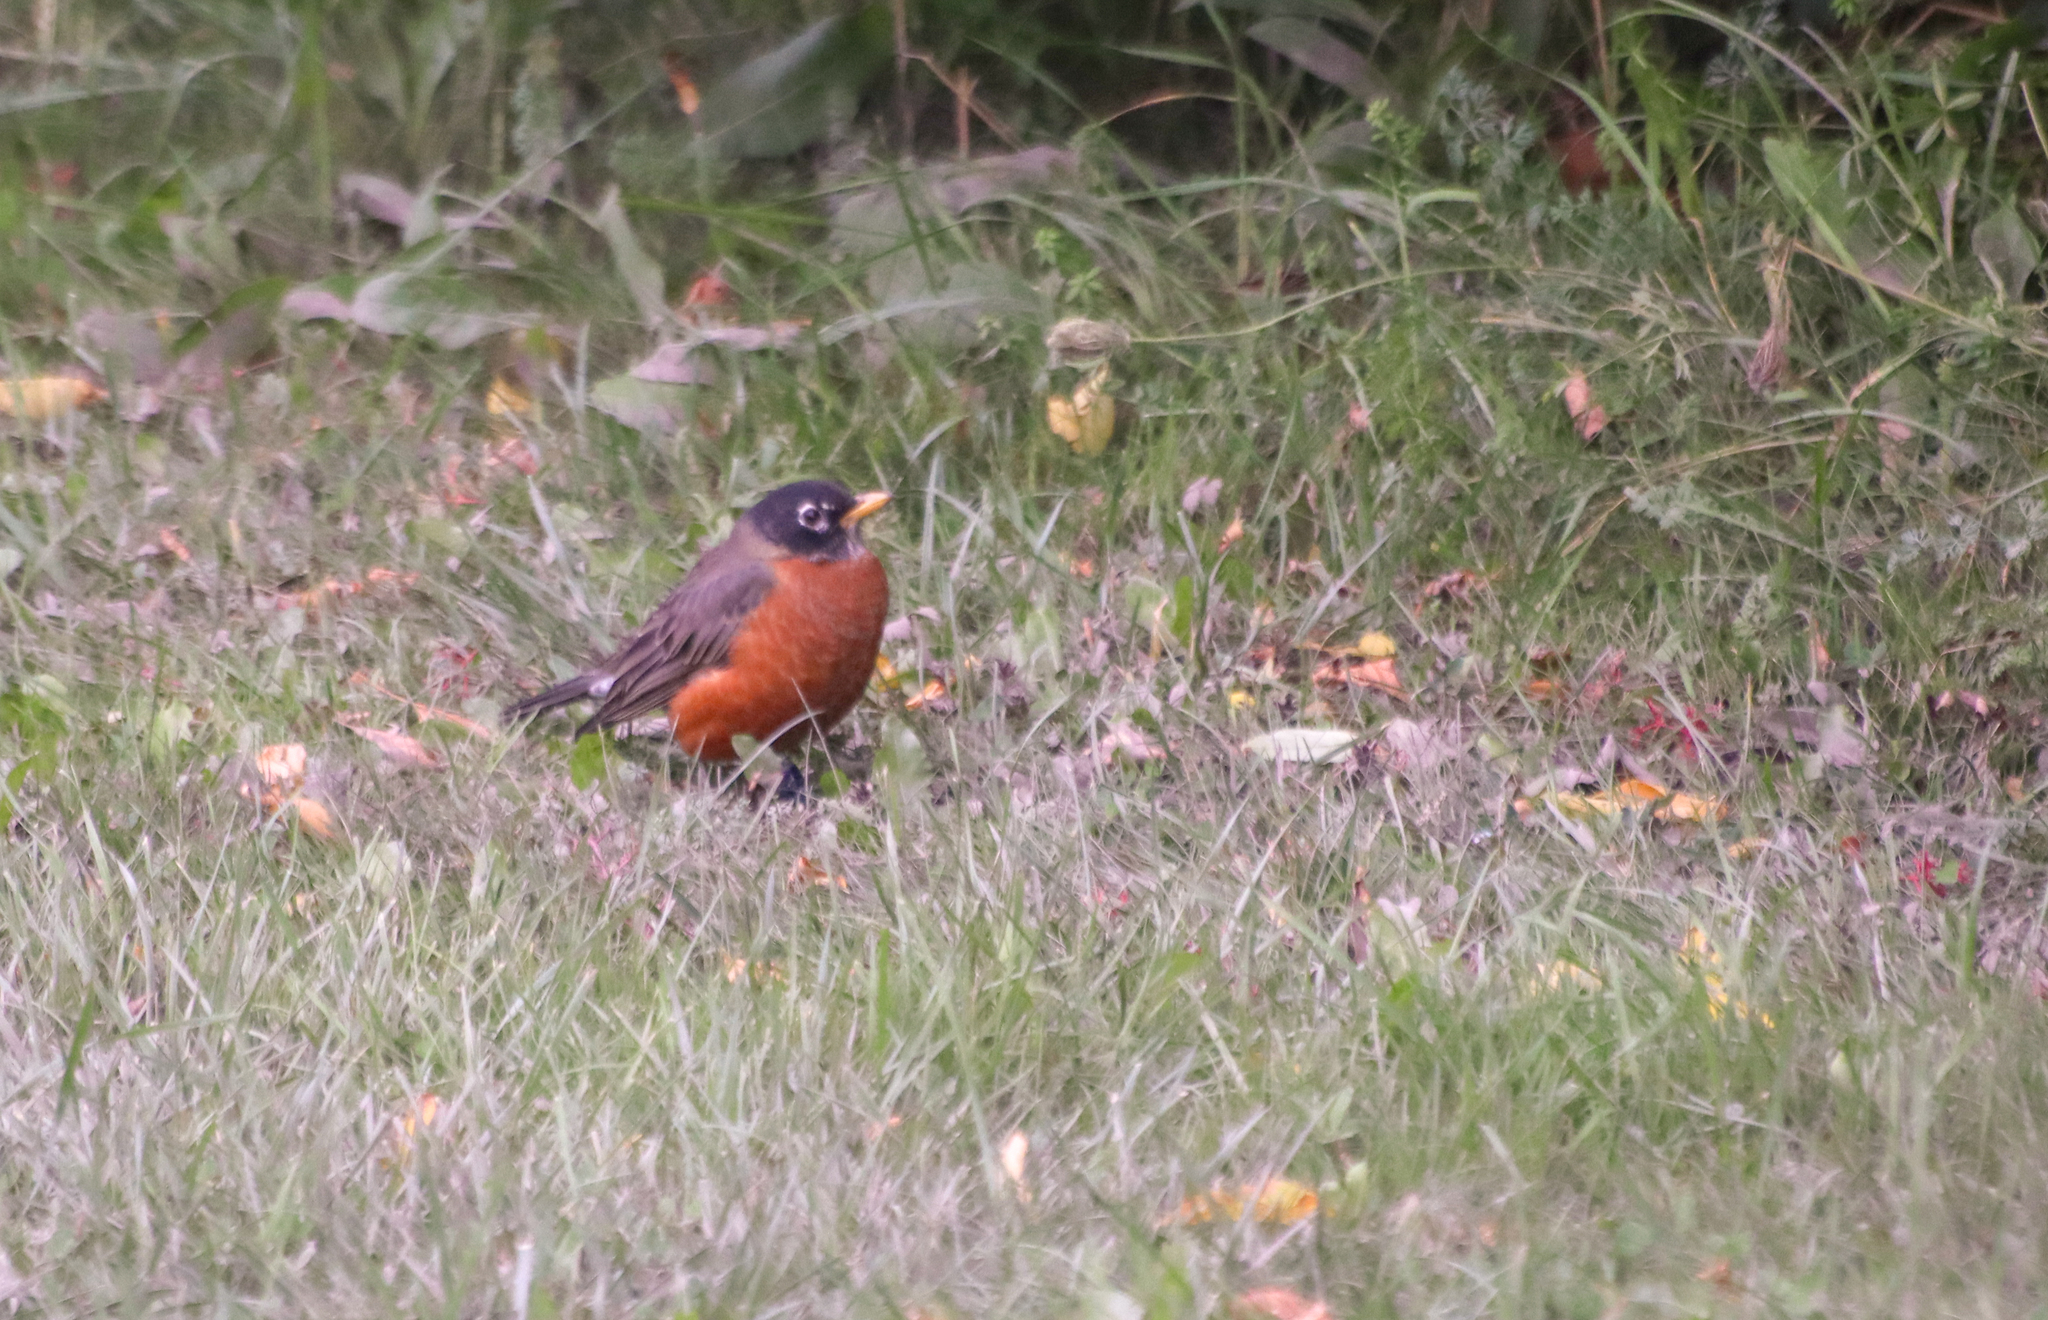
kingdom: Animalia
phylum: Chordata
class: Aves
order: Passeriformes
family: Turdidae
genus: Turdus
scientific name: Turdus migratorius
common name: American robin
